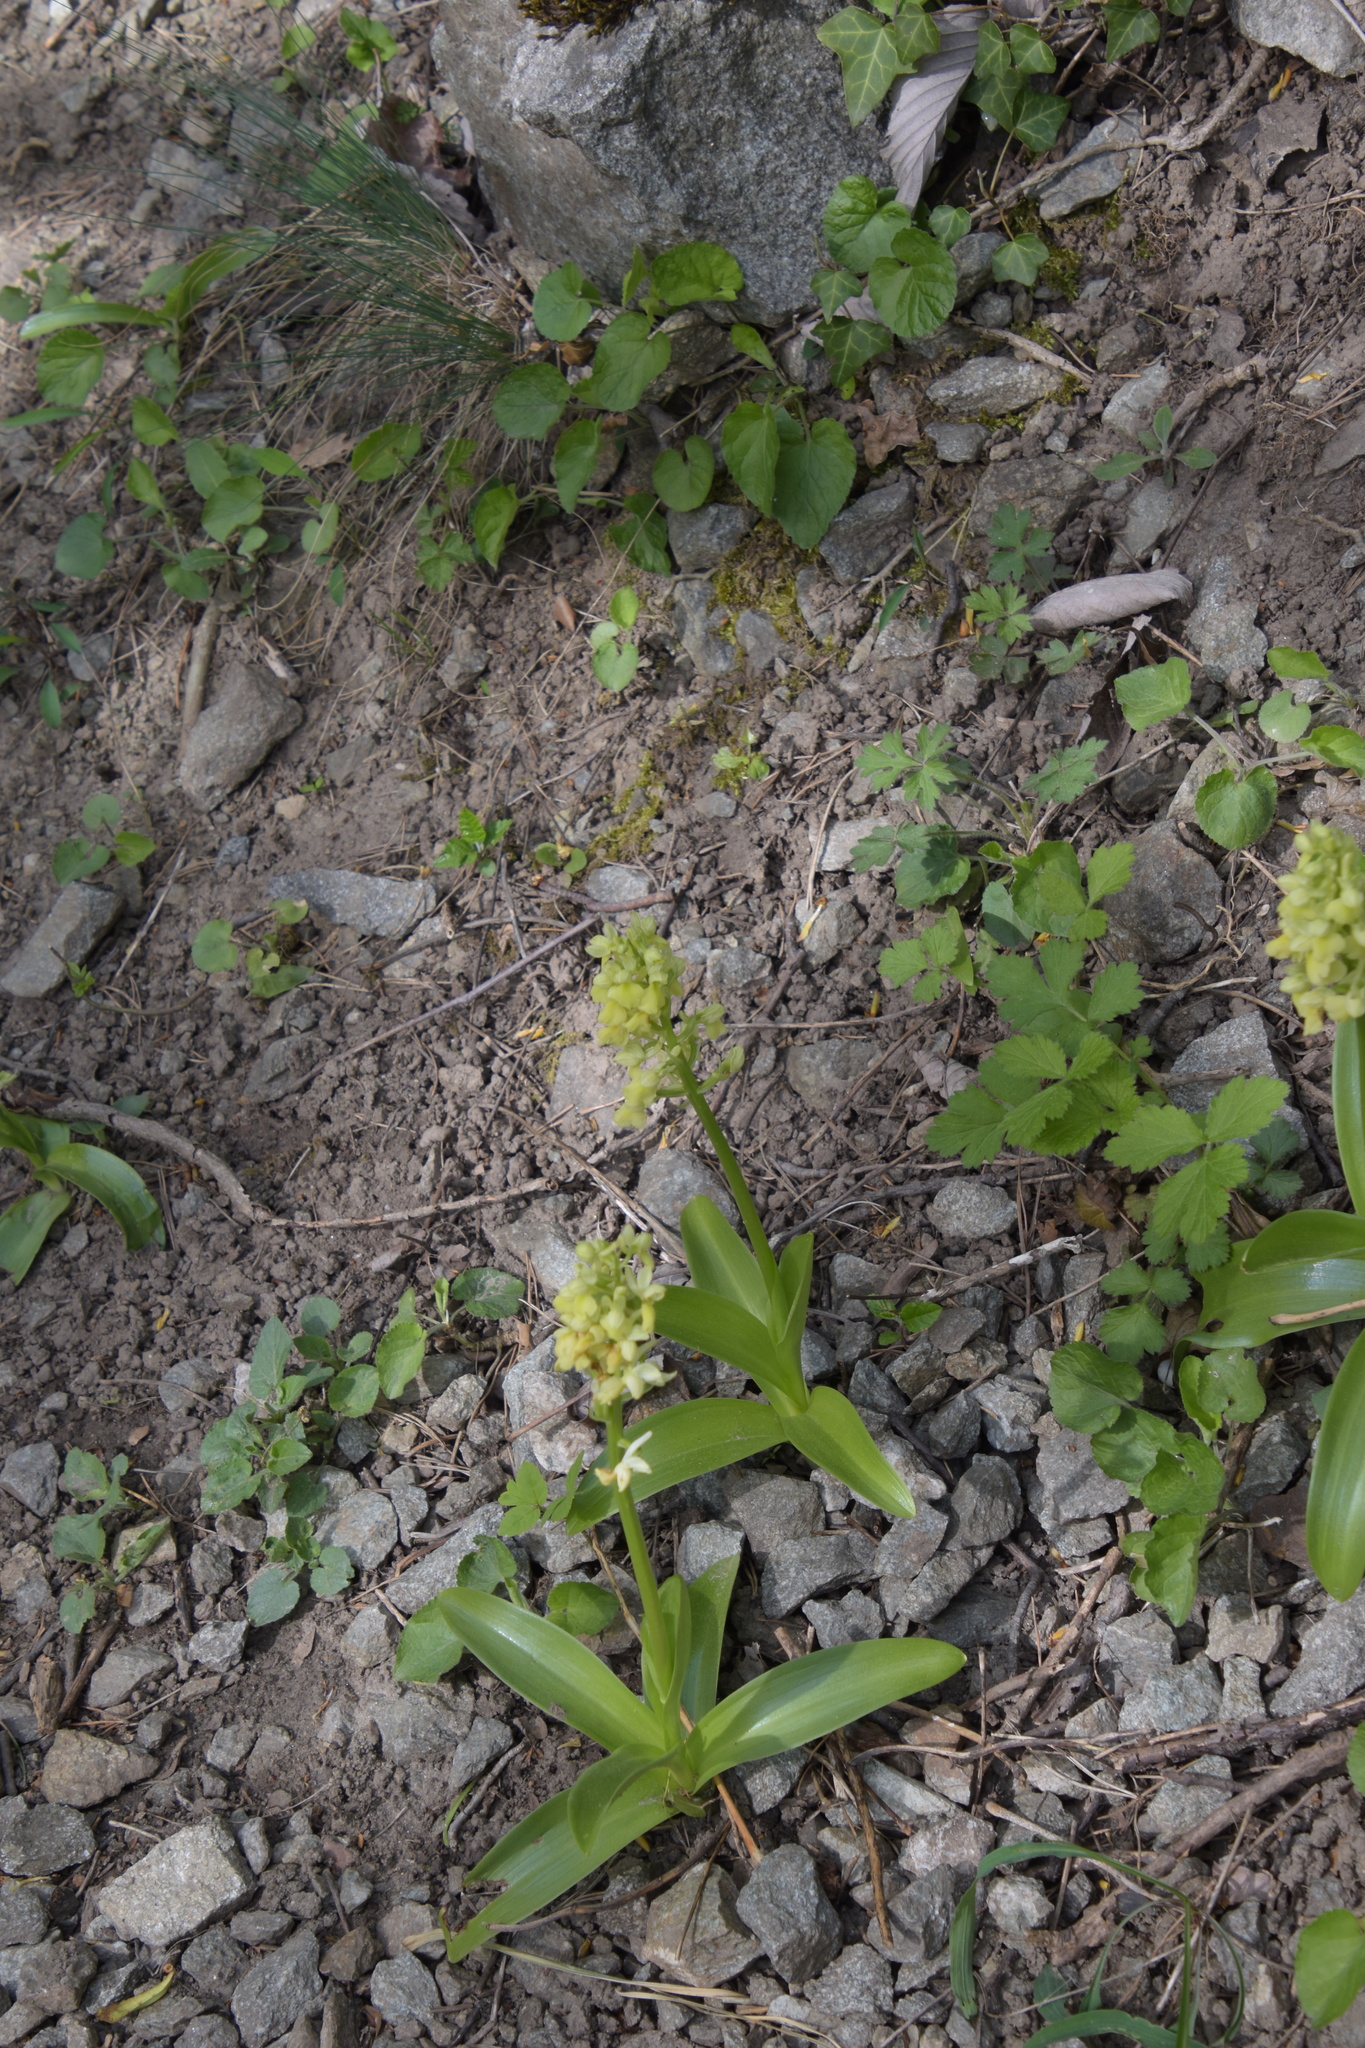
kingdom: Plantae
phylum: Tracheophyta
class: Liliopsida
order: Asparagales
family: Orchidaceae
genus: Orchis
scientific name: Orchis pallens
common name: Pale-flowered orchid
